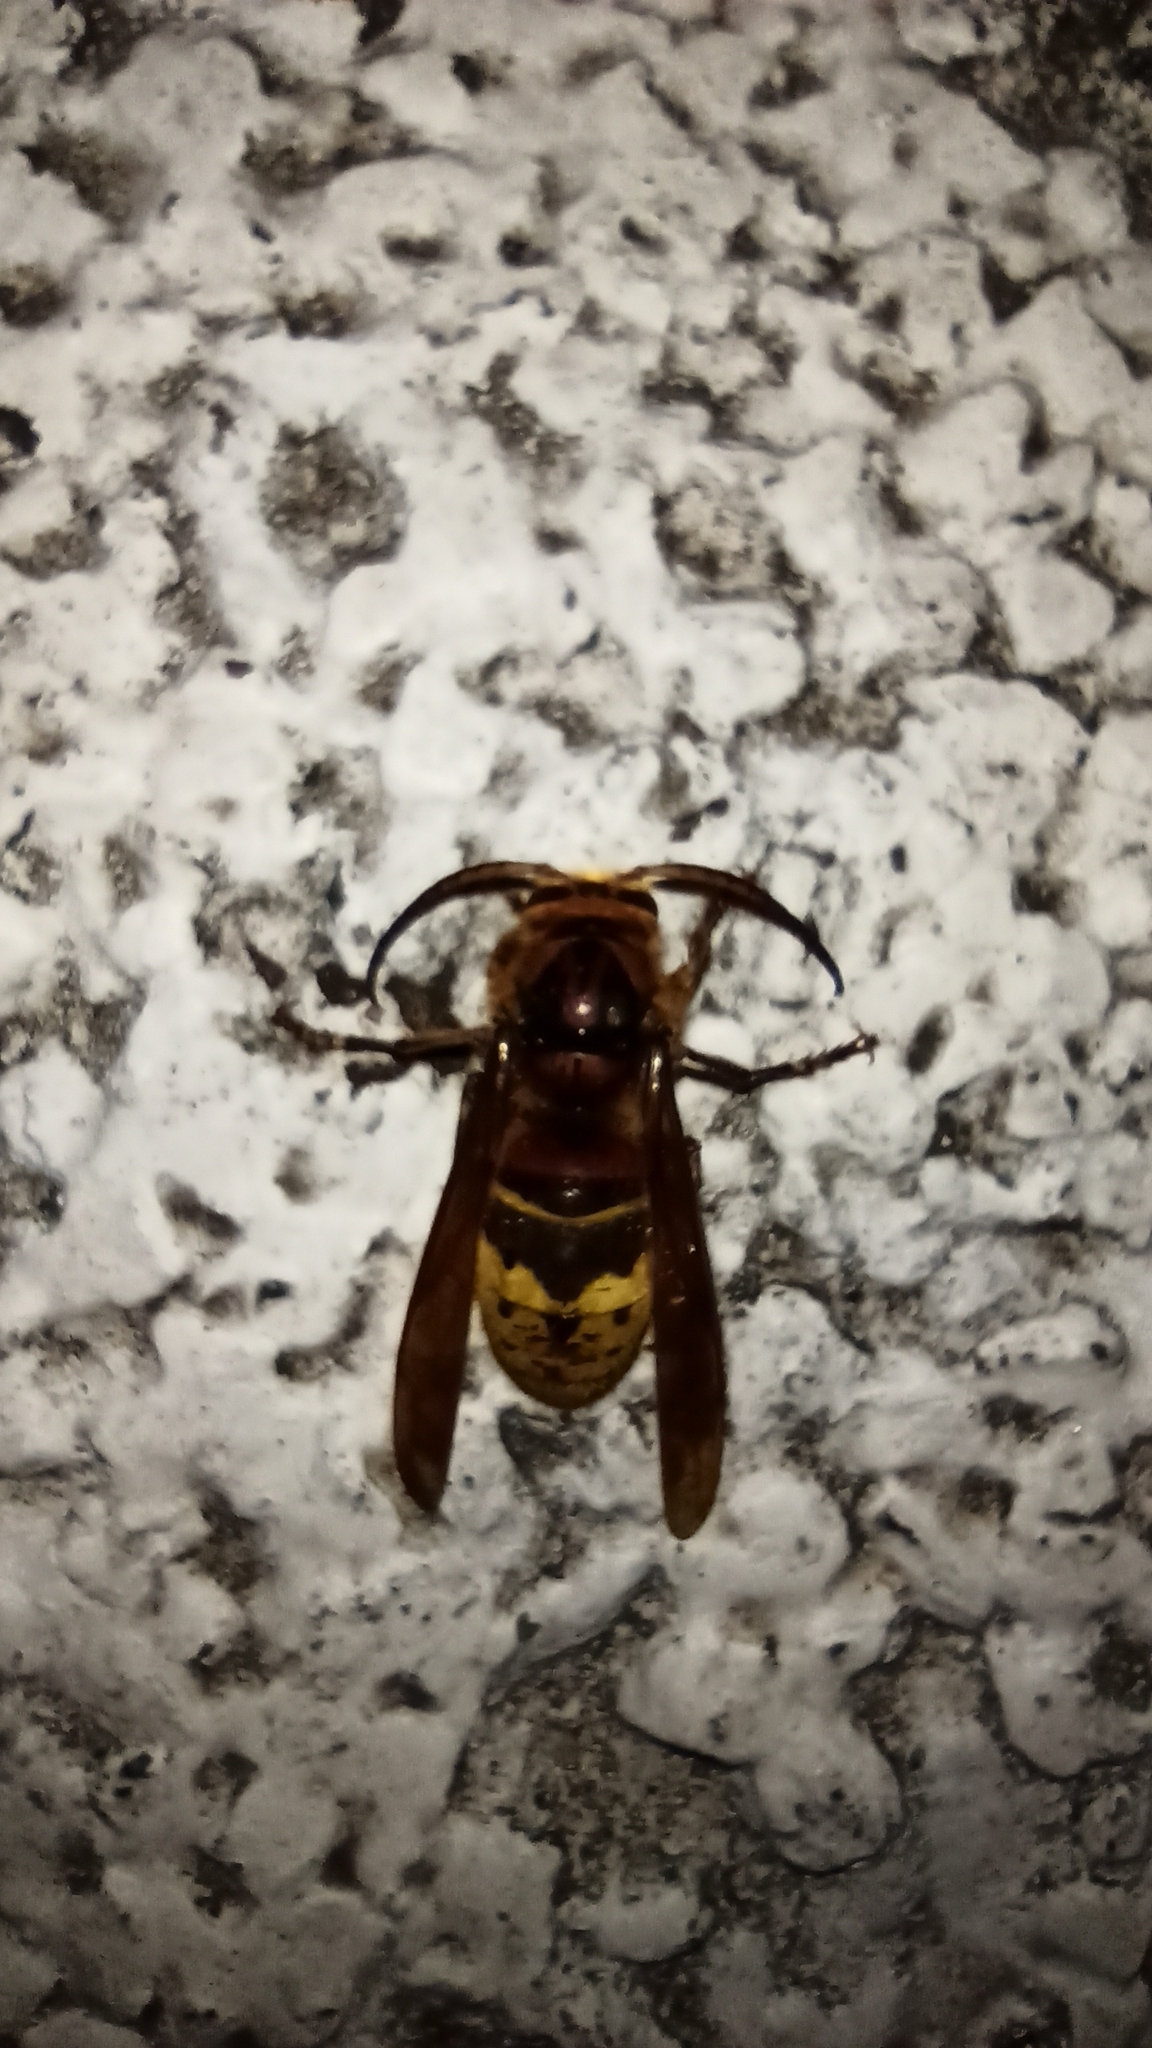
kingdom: Animalia
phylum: Arthropoda
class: Insecta
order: Hymenoptera
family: Vespidae
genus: Vespa
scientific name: Vespa crabro
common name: Hornet
